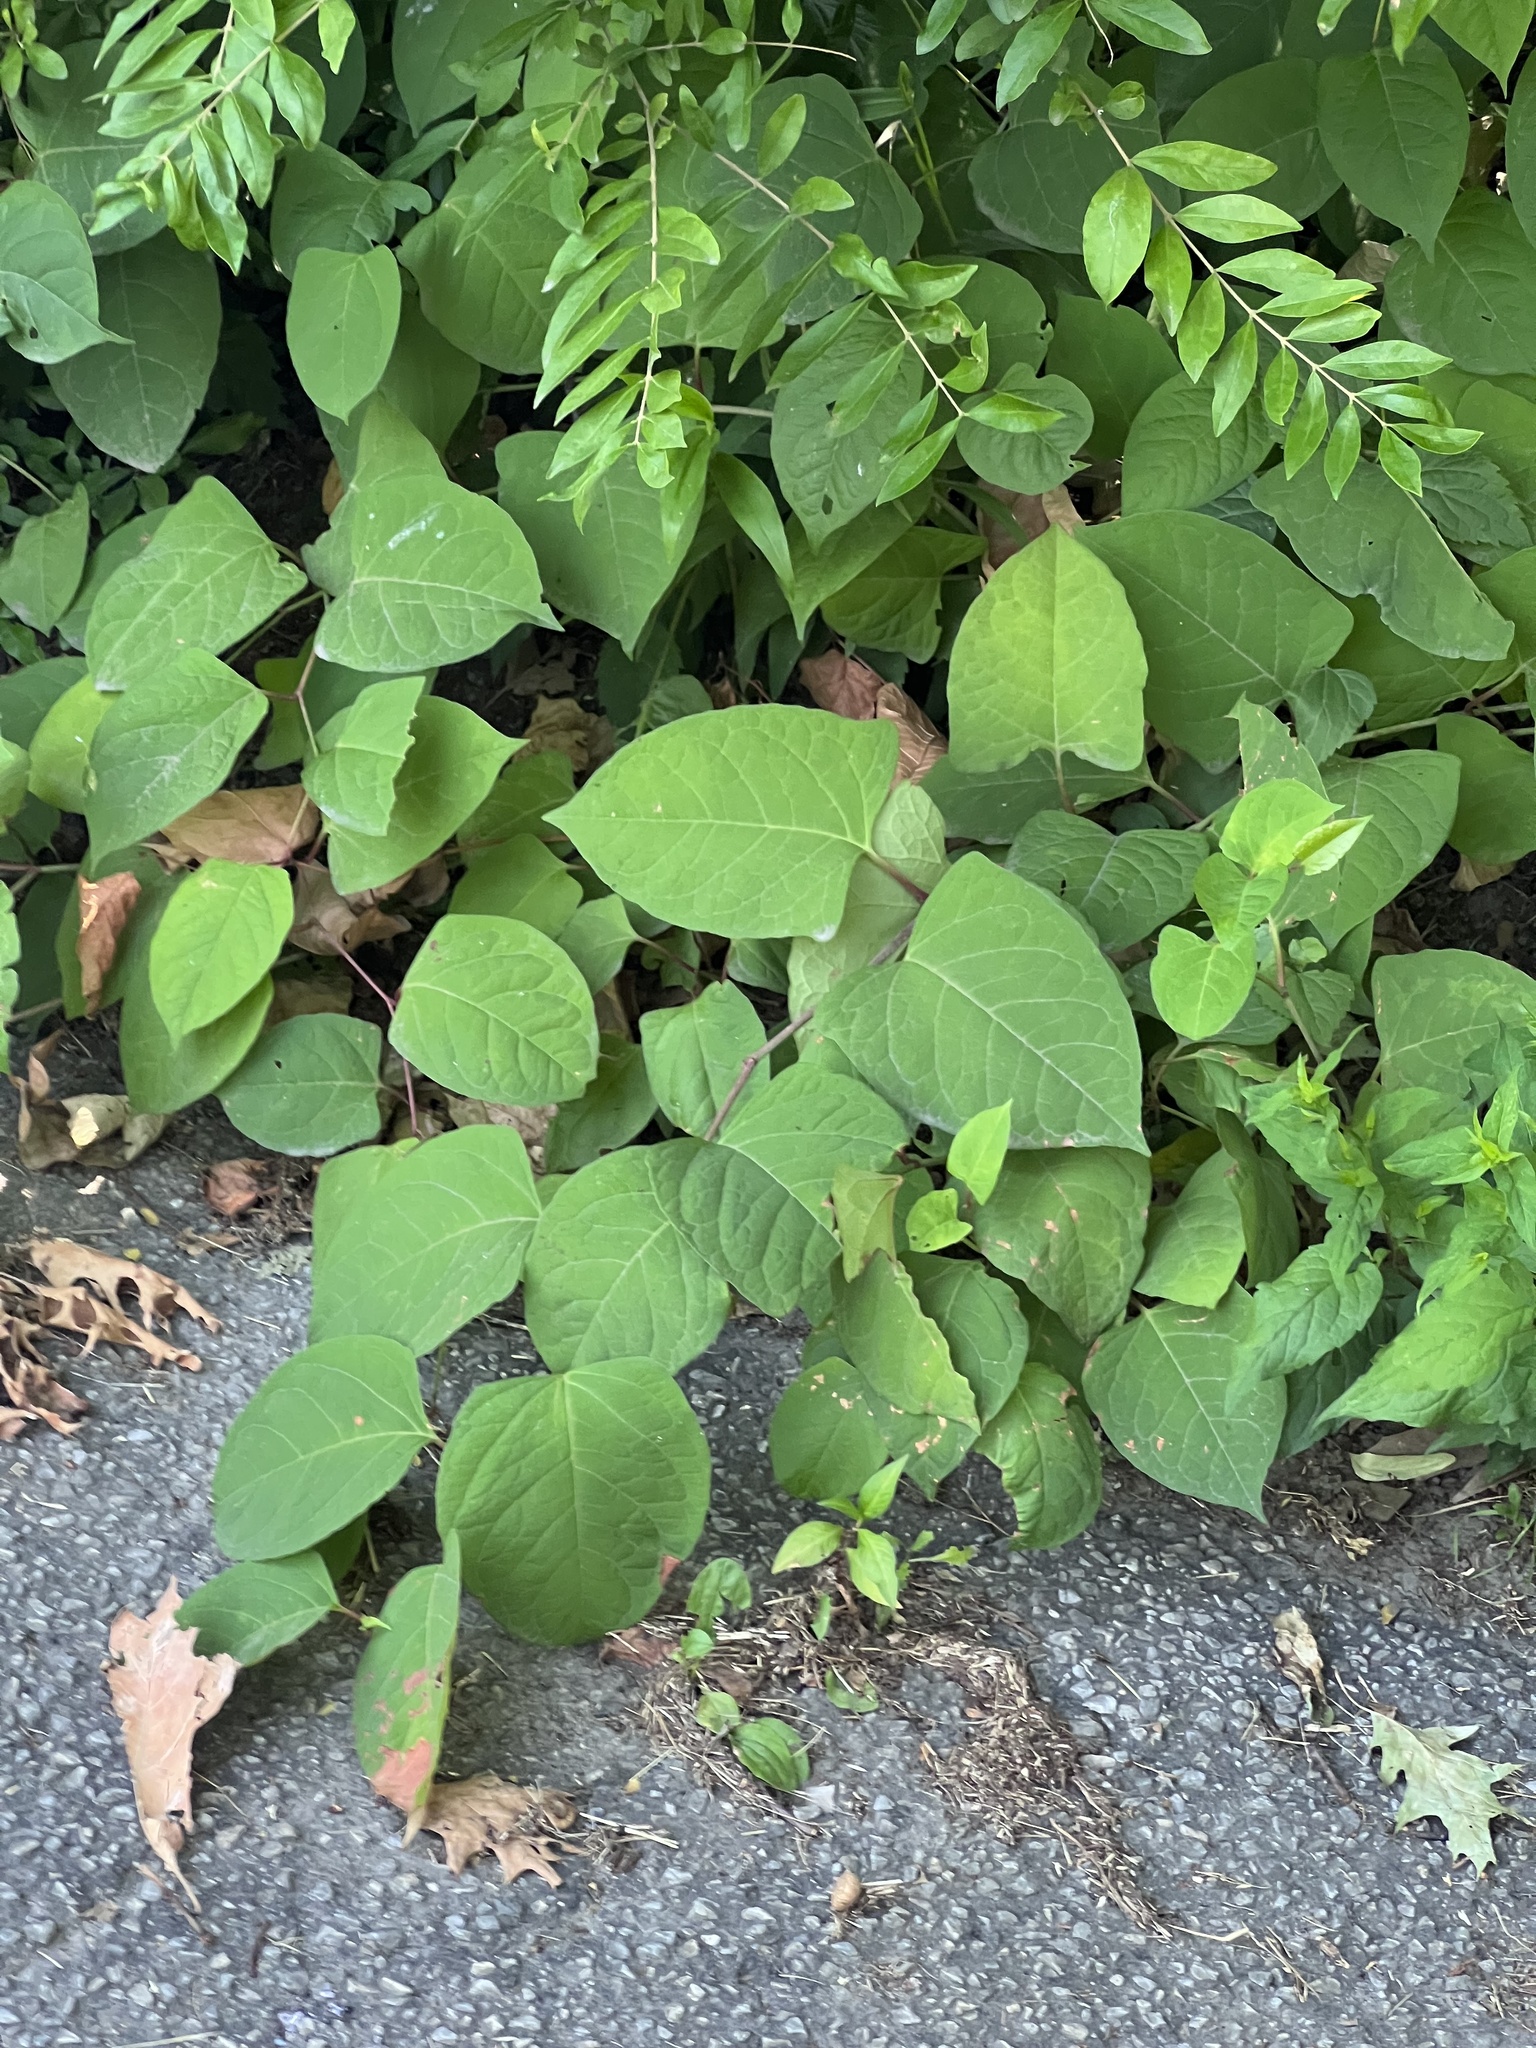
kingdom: Plantae
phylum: Tracheophyta
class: Magnoliopsida
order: Caryophyllales
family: Polygonaceae
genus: Reynoutria
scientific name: Reynoutria japonica
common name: Japanese knotweed
